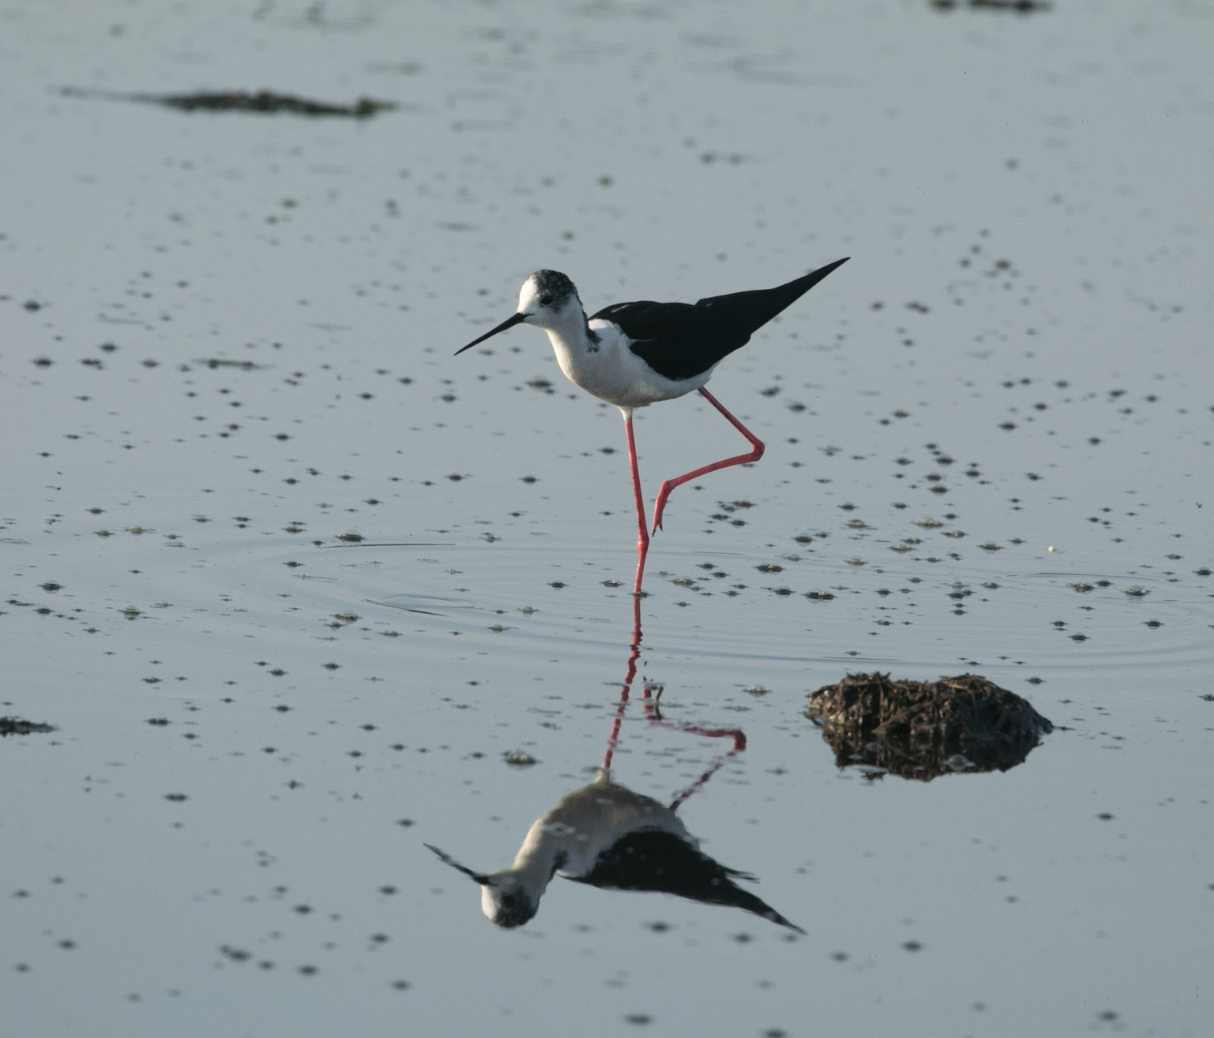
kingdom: Animalia
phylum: Chordata
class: Aves
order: Charadriiformes
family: Recurvirostridae
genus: Himantopus
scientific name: Himantopus himantopus
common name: Black-winged stilt
